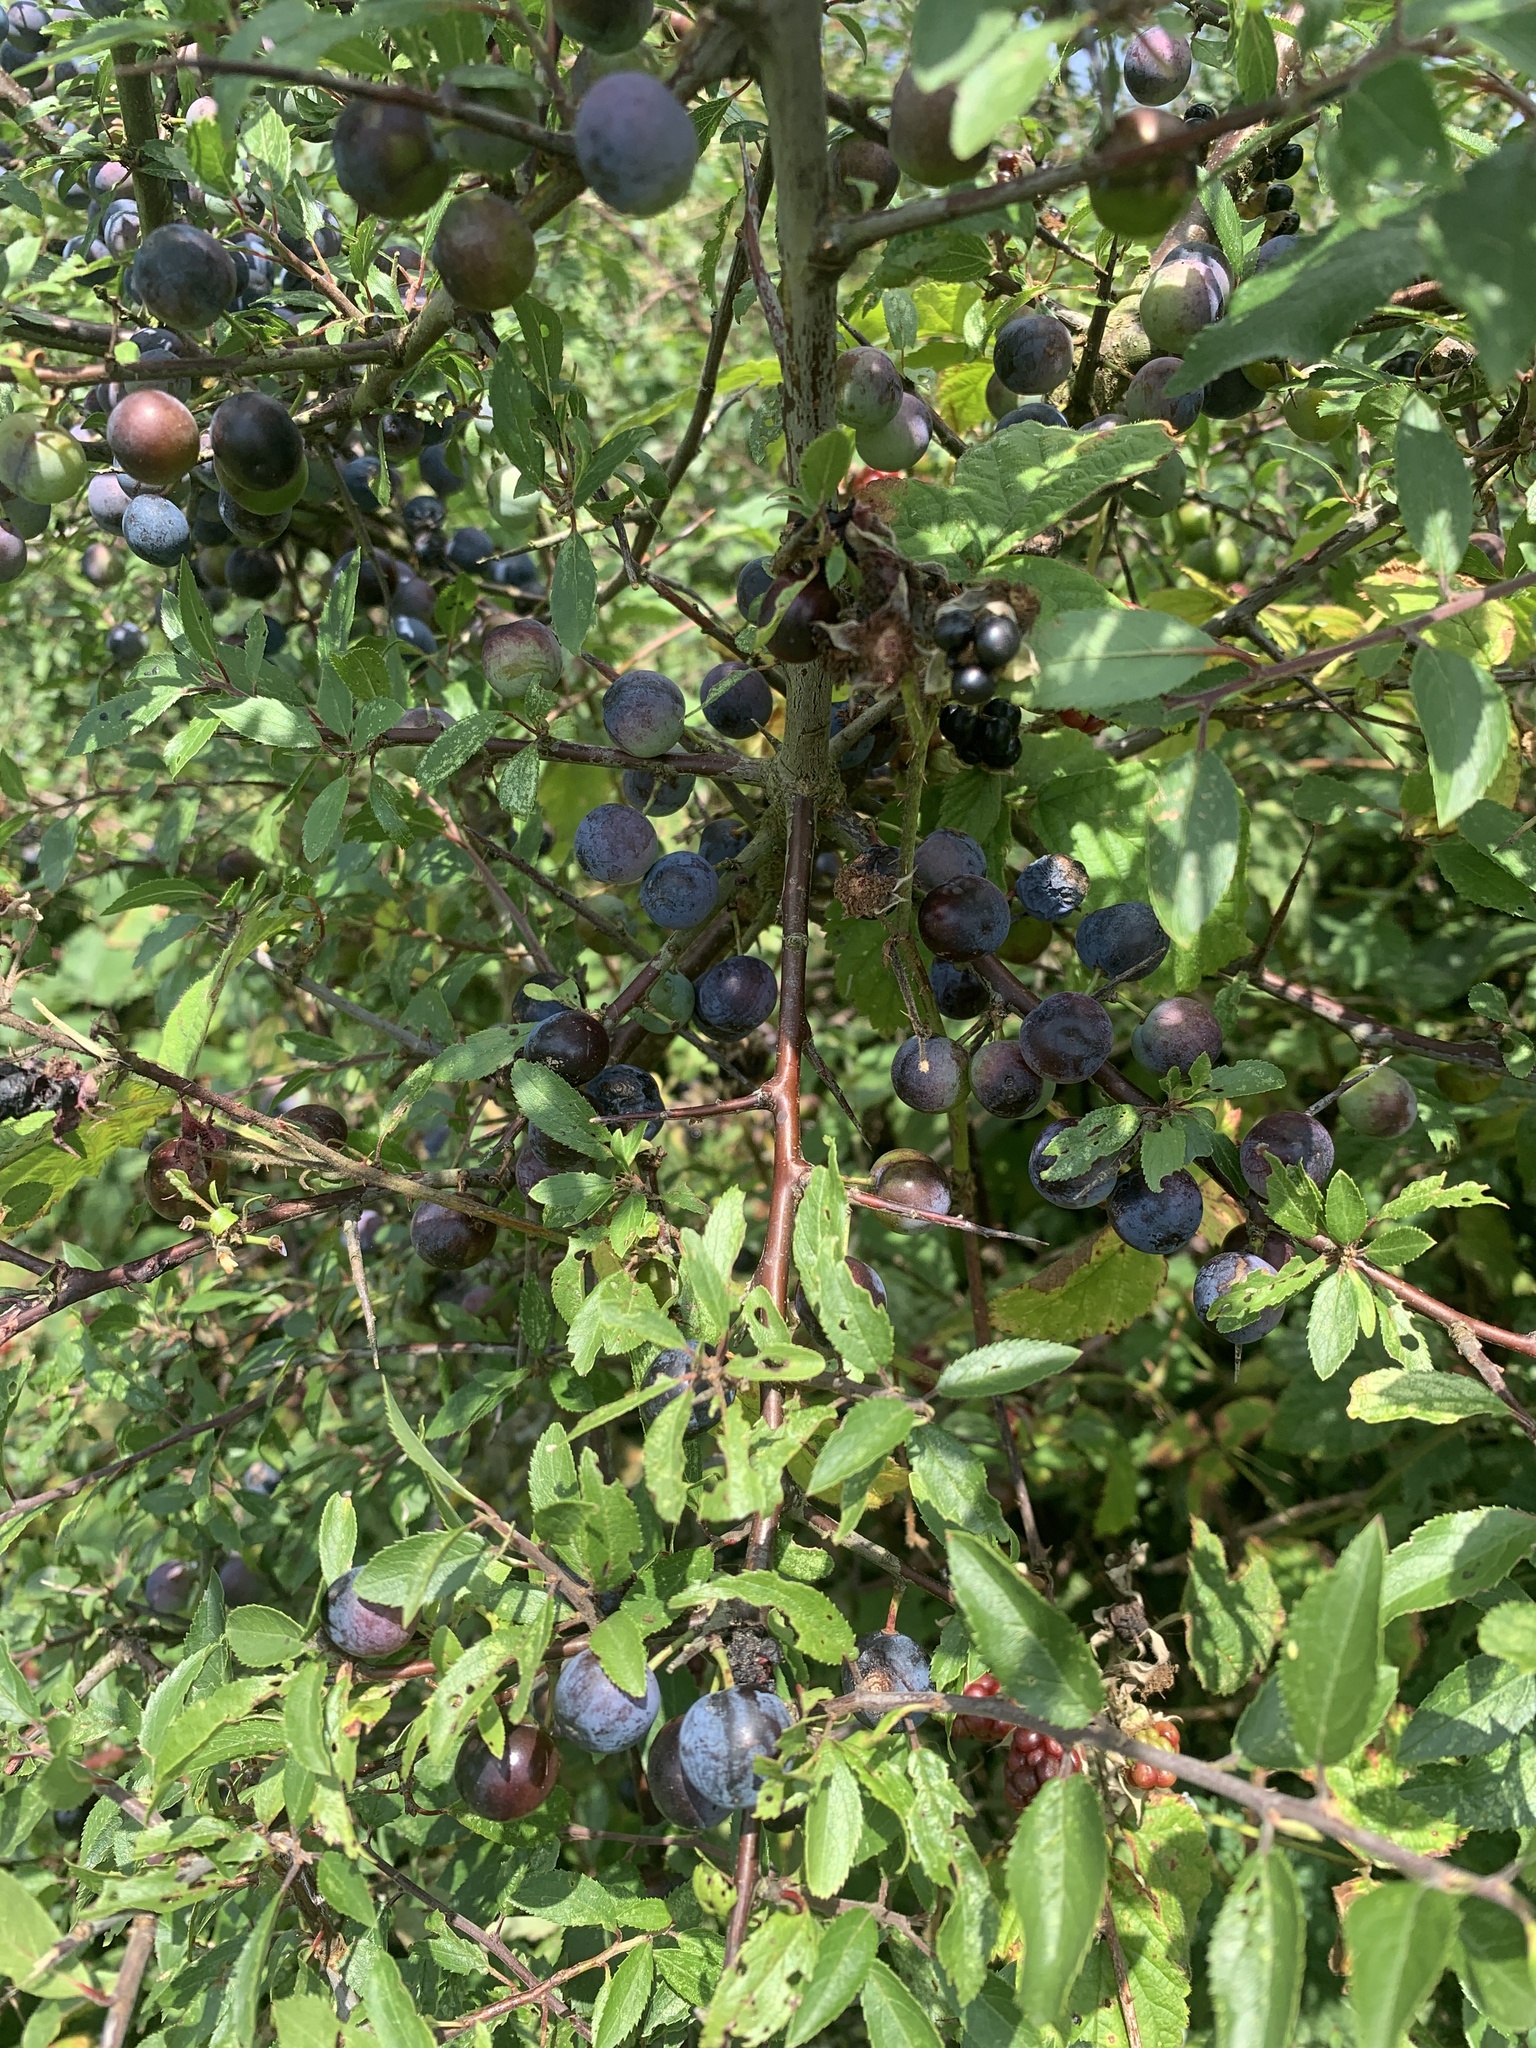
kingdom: Plantae
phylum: Tracheophyta
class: Magnoliopsida
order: Rosales
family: Rosaceae
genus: Prunus
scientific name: Prunus spinosa
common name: Blackthorn
